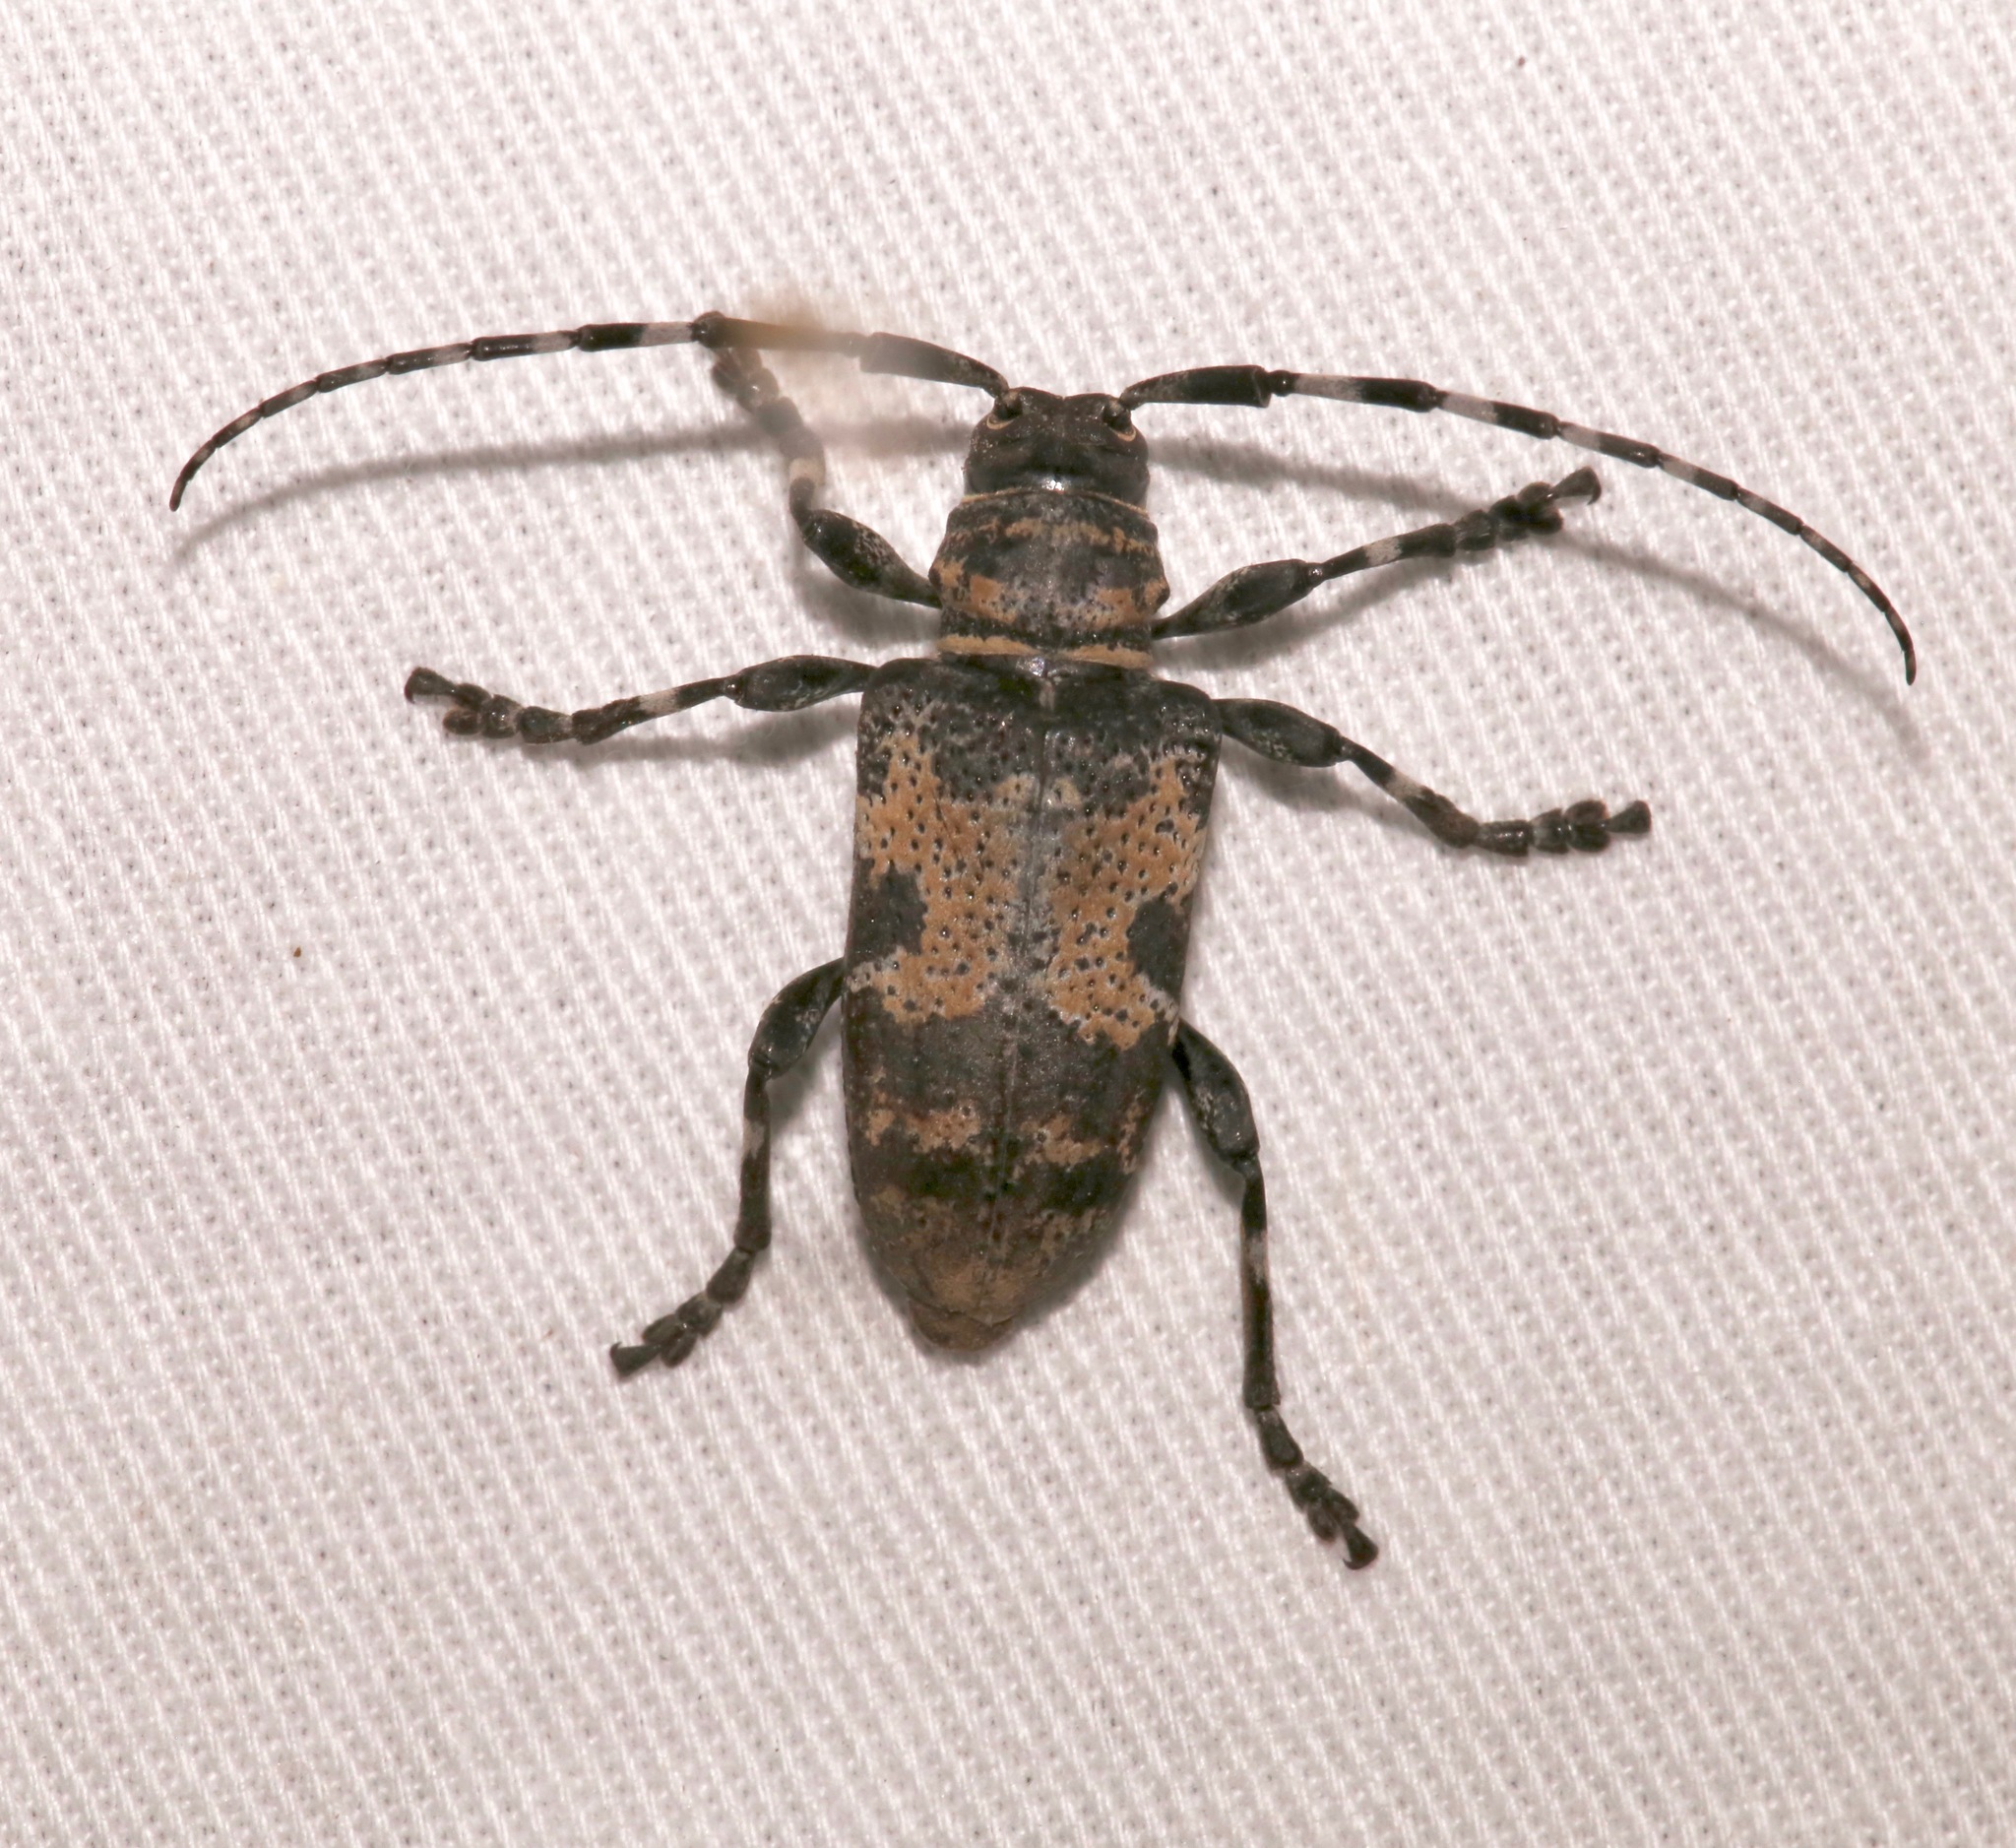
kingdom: Animalia
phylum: Arthropoda
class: Insecta
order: Coleoptera
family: Cerambycidae
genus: Coenopoeus
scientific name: Coenopoeus palmeri
